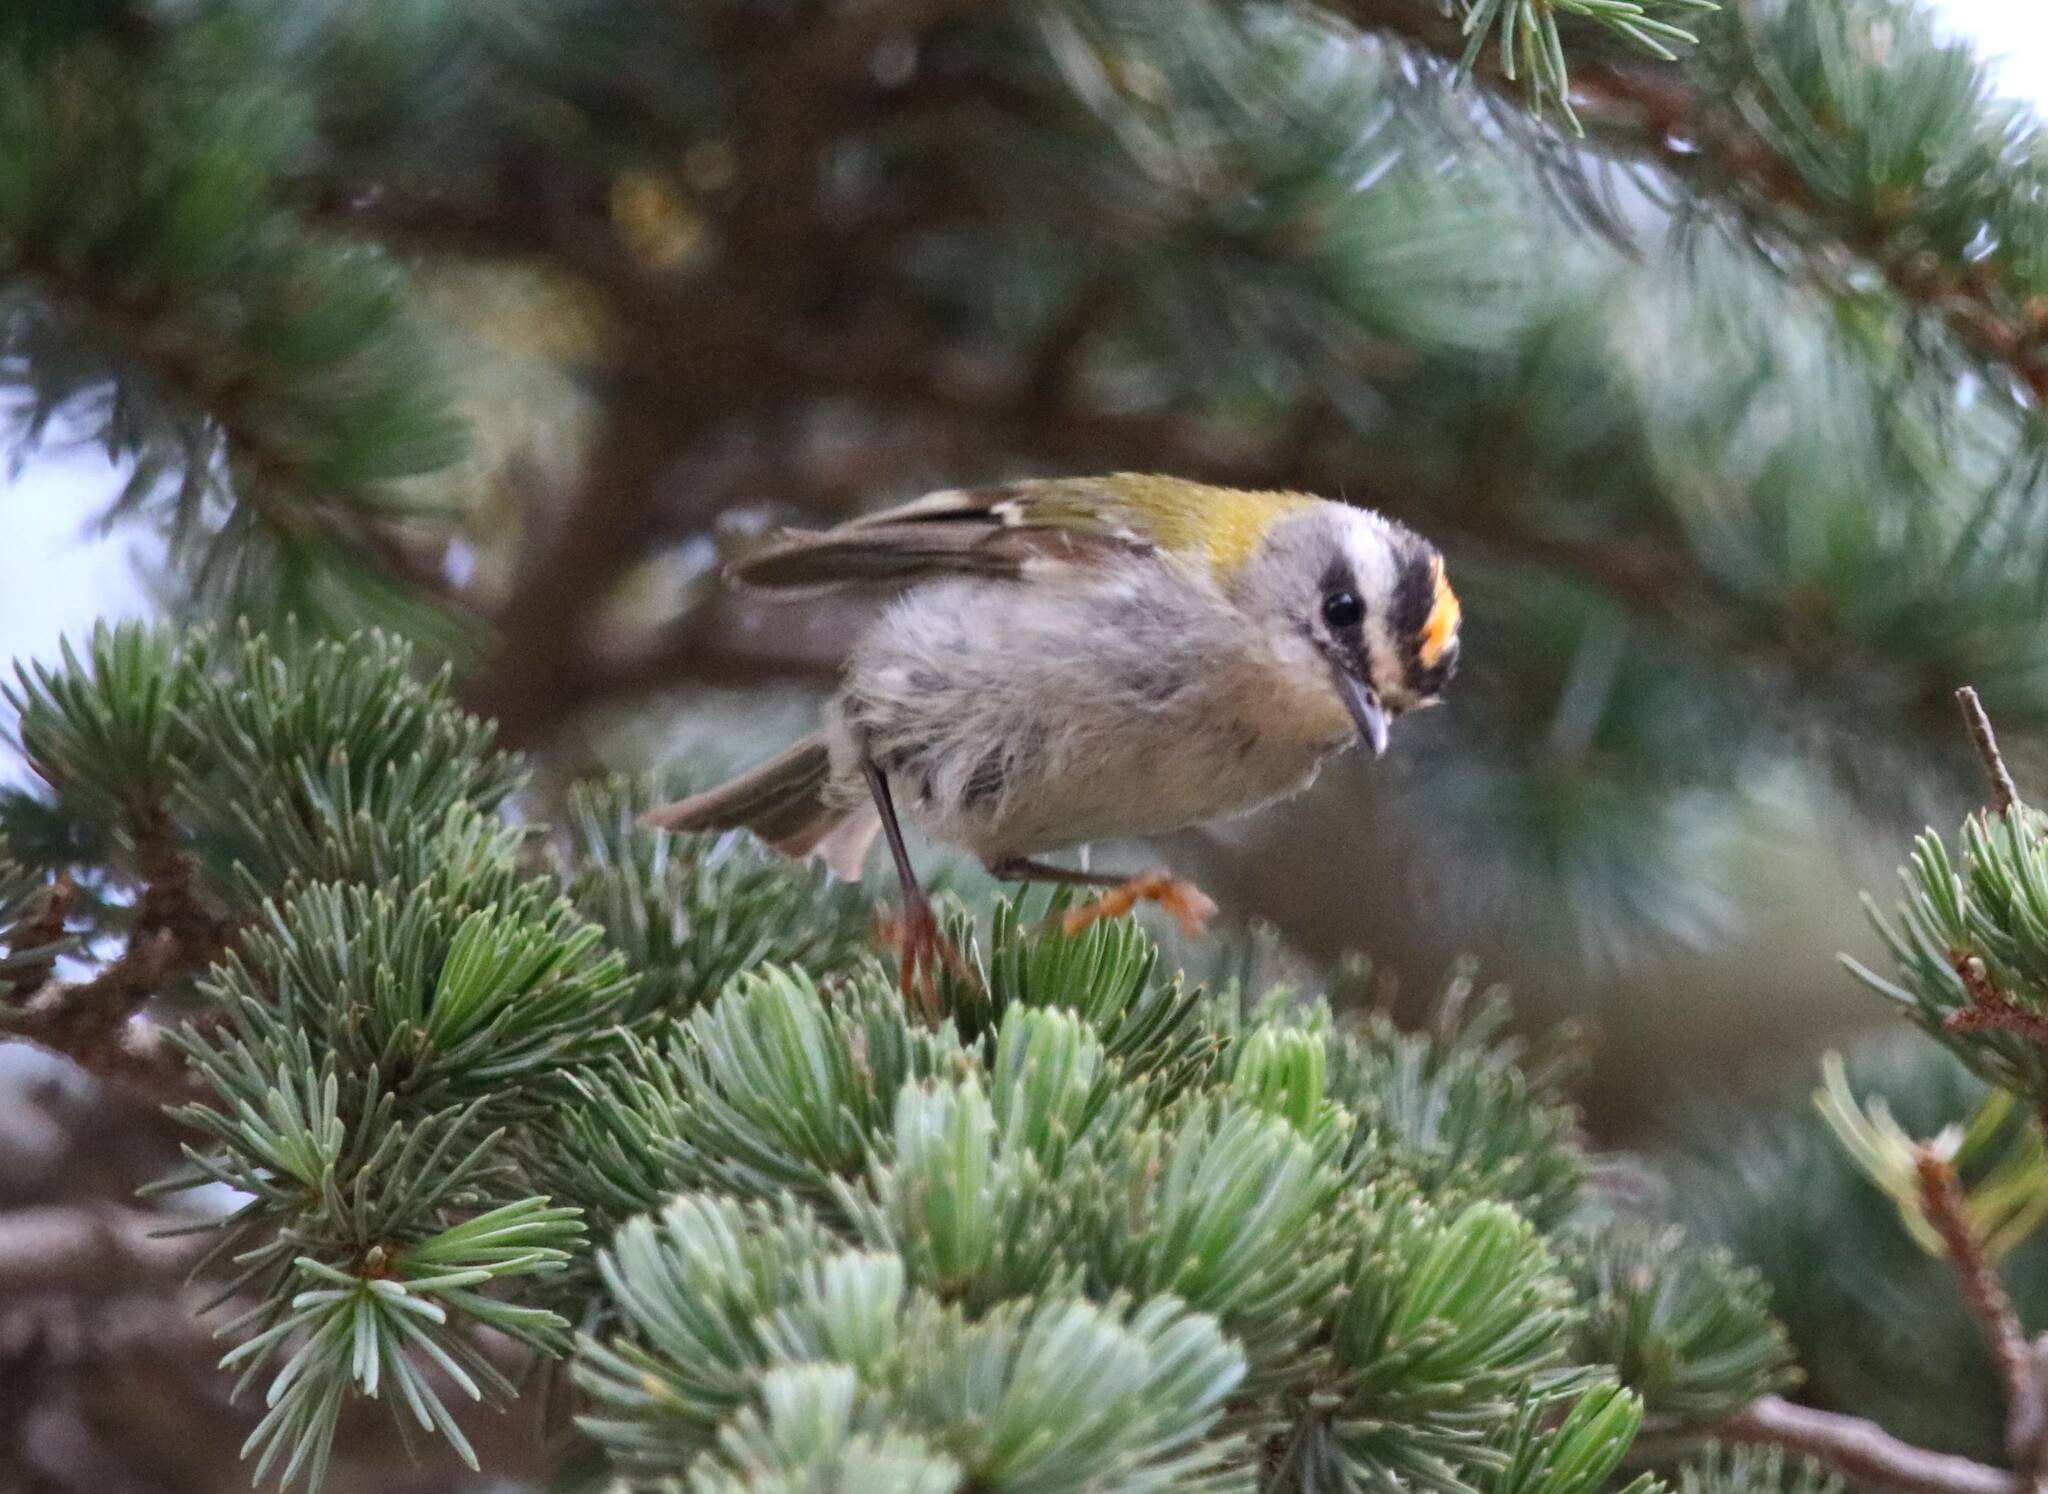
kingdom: Animalia
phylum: Chordata
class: Aves
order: Passeriformes
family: Regulidae
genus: Regulus
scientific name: Regulus ignicapilla
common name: Firecrest
